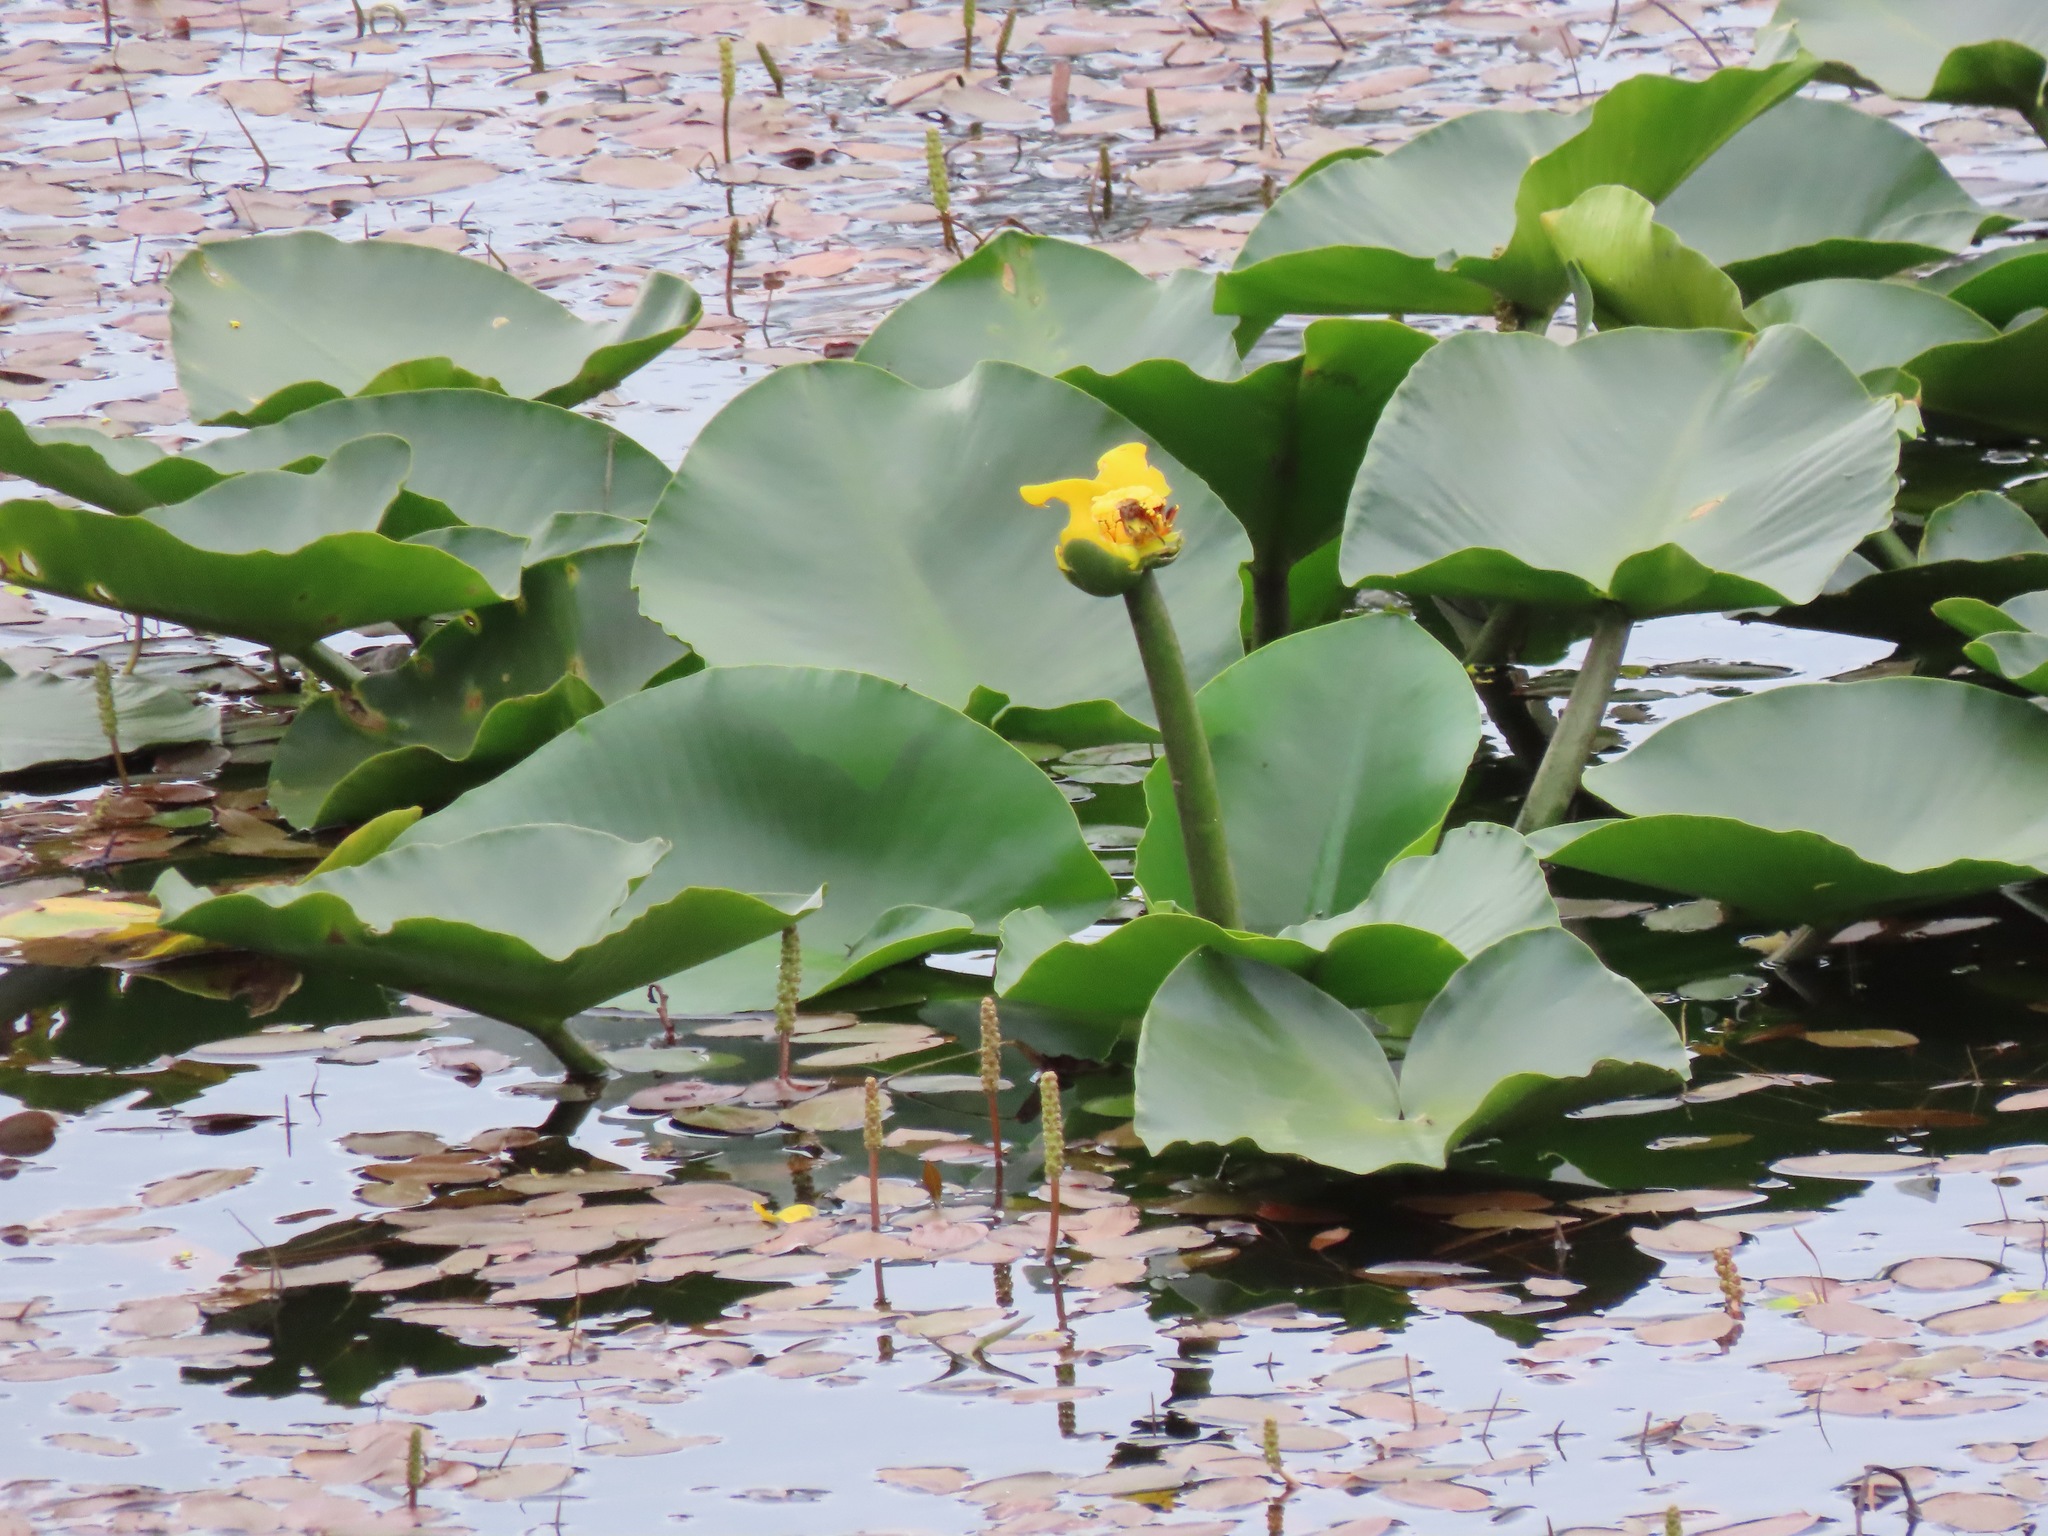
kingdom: Plantae
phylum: Tracheophyta
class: Magnoliopsida
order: Nymphaeales
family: Nymphaeaceae
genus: Nuphar
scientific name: Nuphar polysepala
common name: Rocky mountain cow-lily
